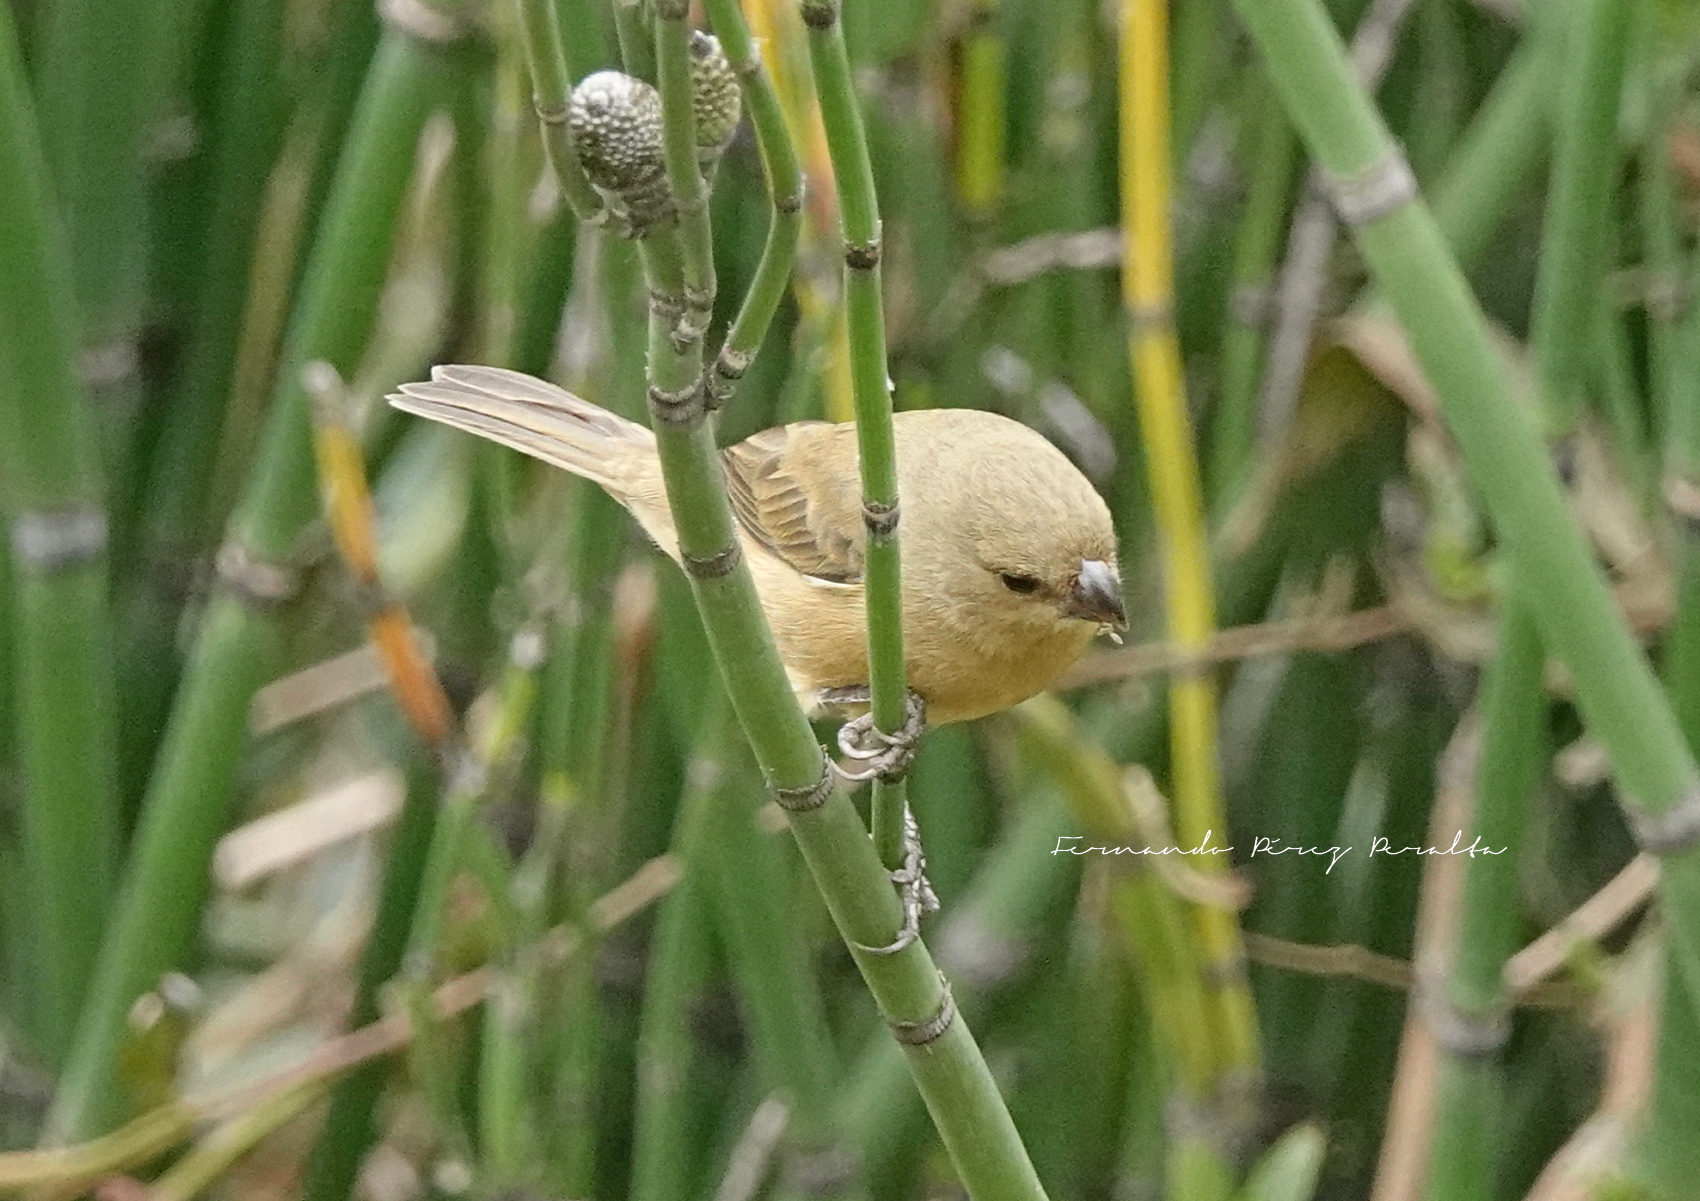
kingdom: Animalia
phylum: Chordata
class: Aves
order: Passeriformes
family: Thraupidae
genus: Sporophila
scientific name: Sporophila torqueola
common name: White-collared seedeater
